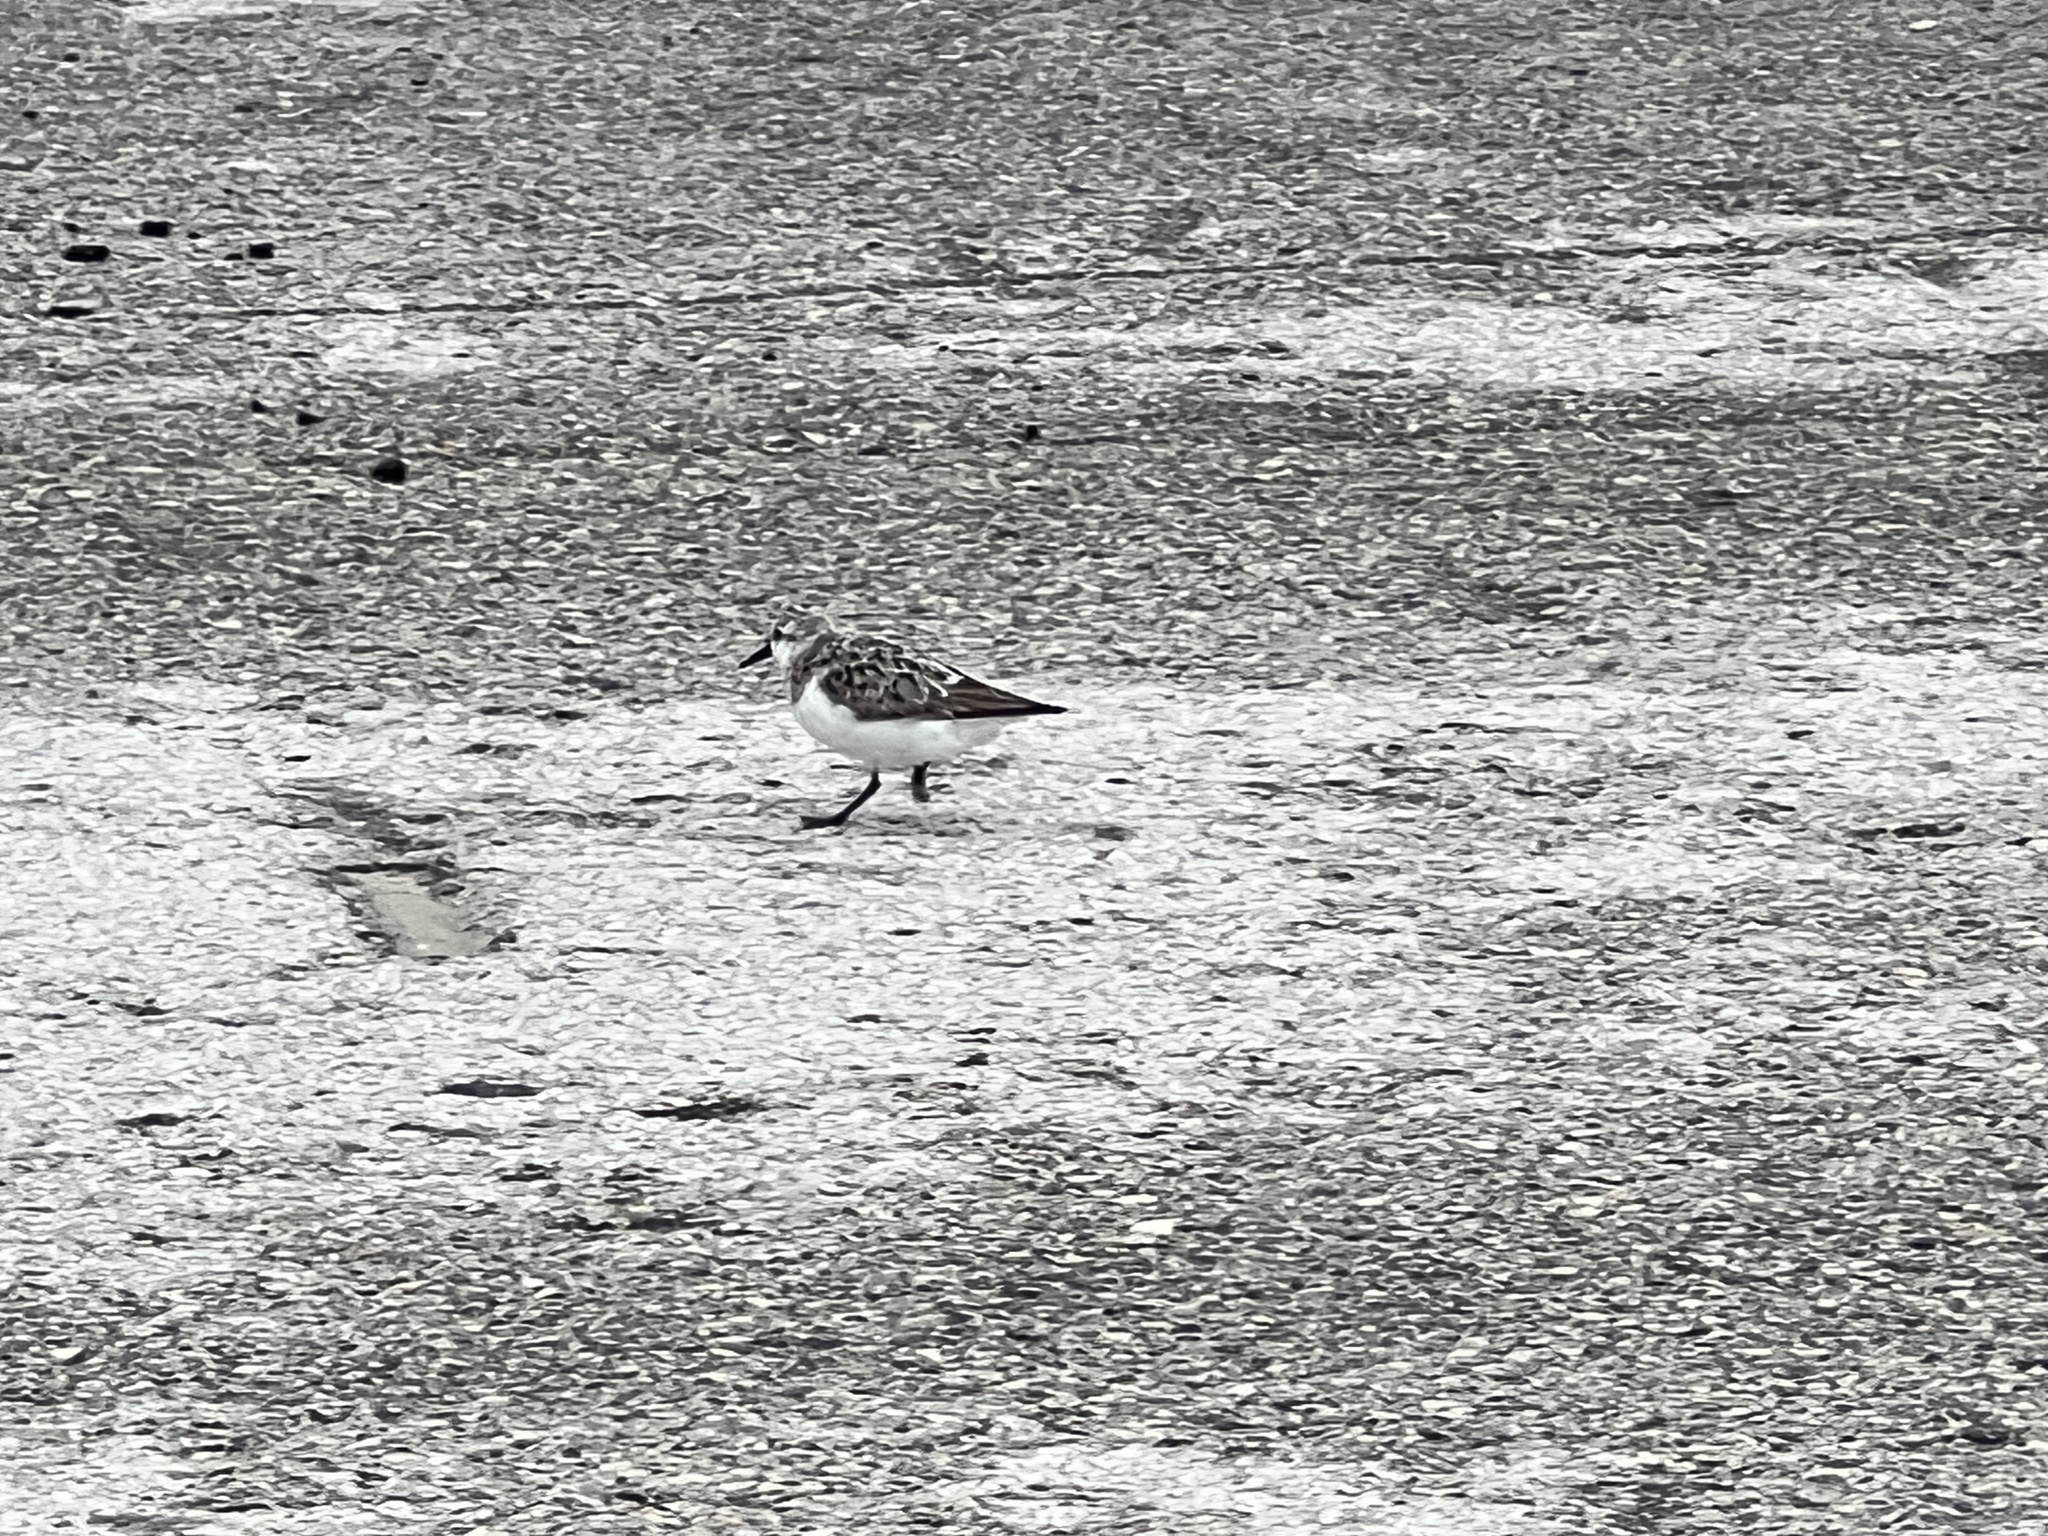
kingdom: Animalia
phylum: Chordata
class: Aves
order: Charadriiformes
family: Scolopacidae
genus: Calidris
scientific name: Calidris alba
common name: Sanderling
